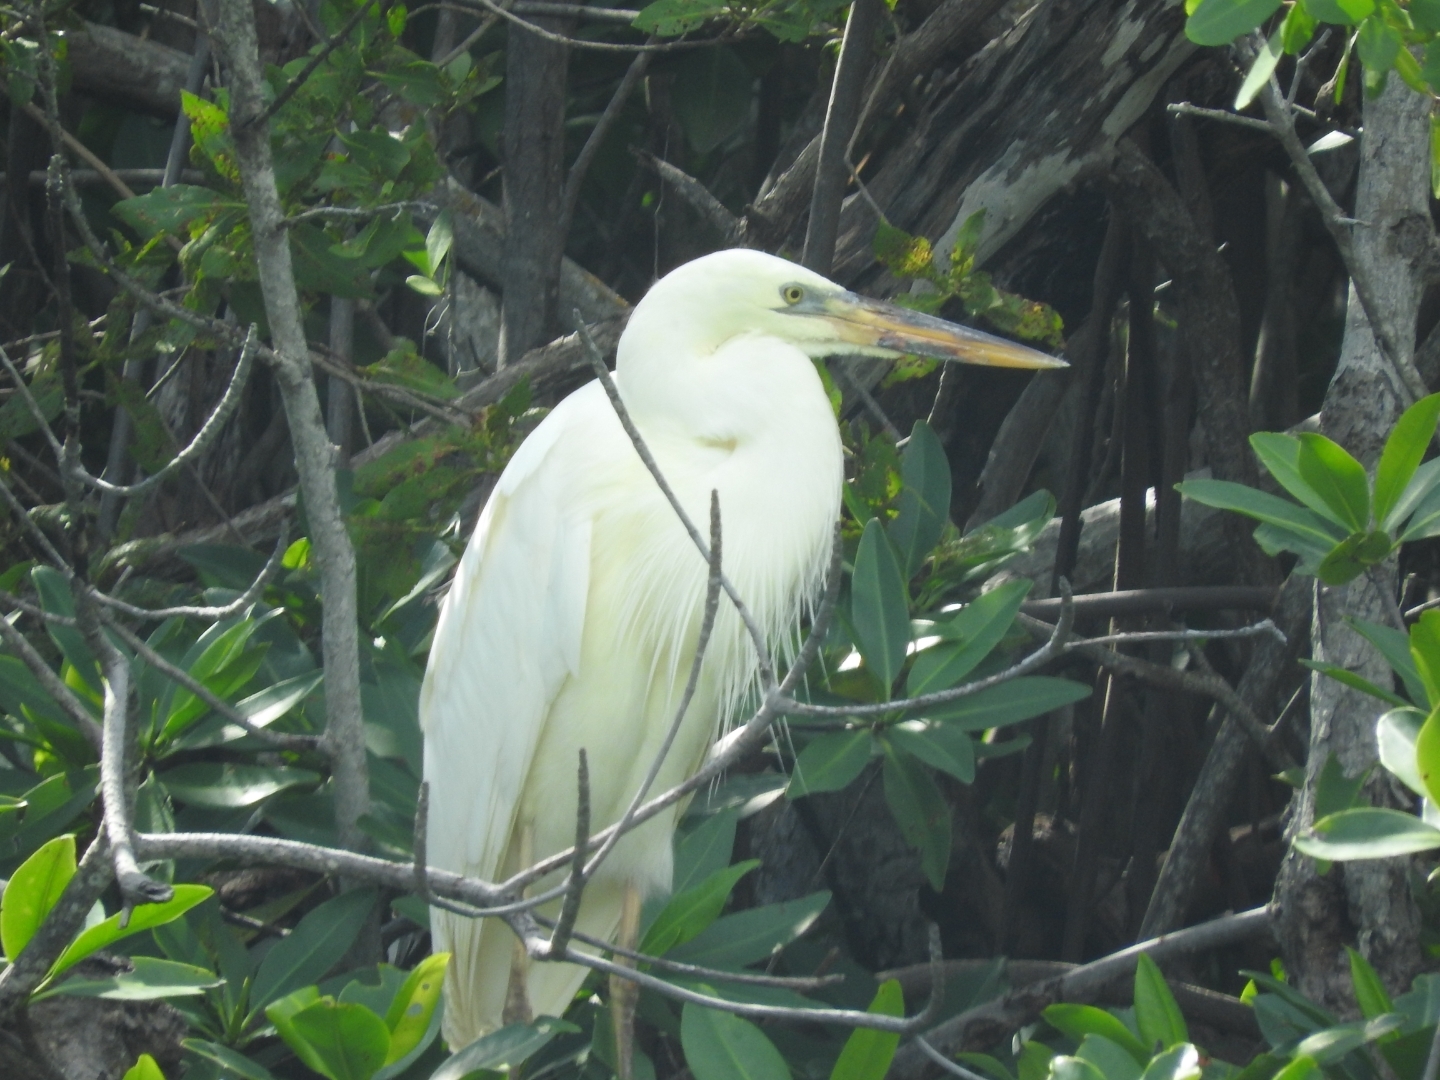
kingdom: Animalia
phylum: Chordata
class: Aves
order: Pelecaniformes
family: Ardeidae
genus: Ardea
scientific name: Ardea herodias
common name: Great blue heron
